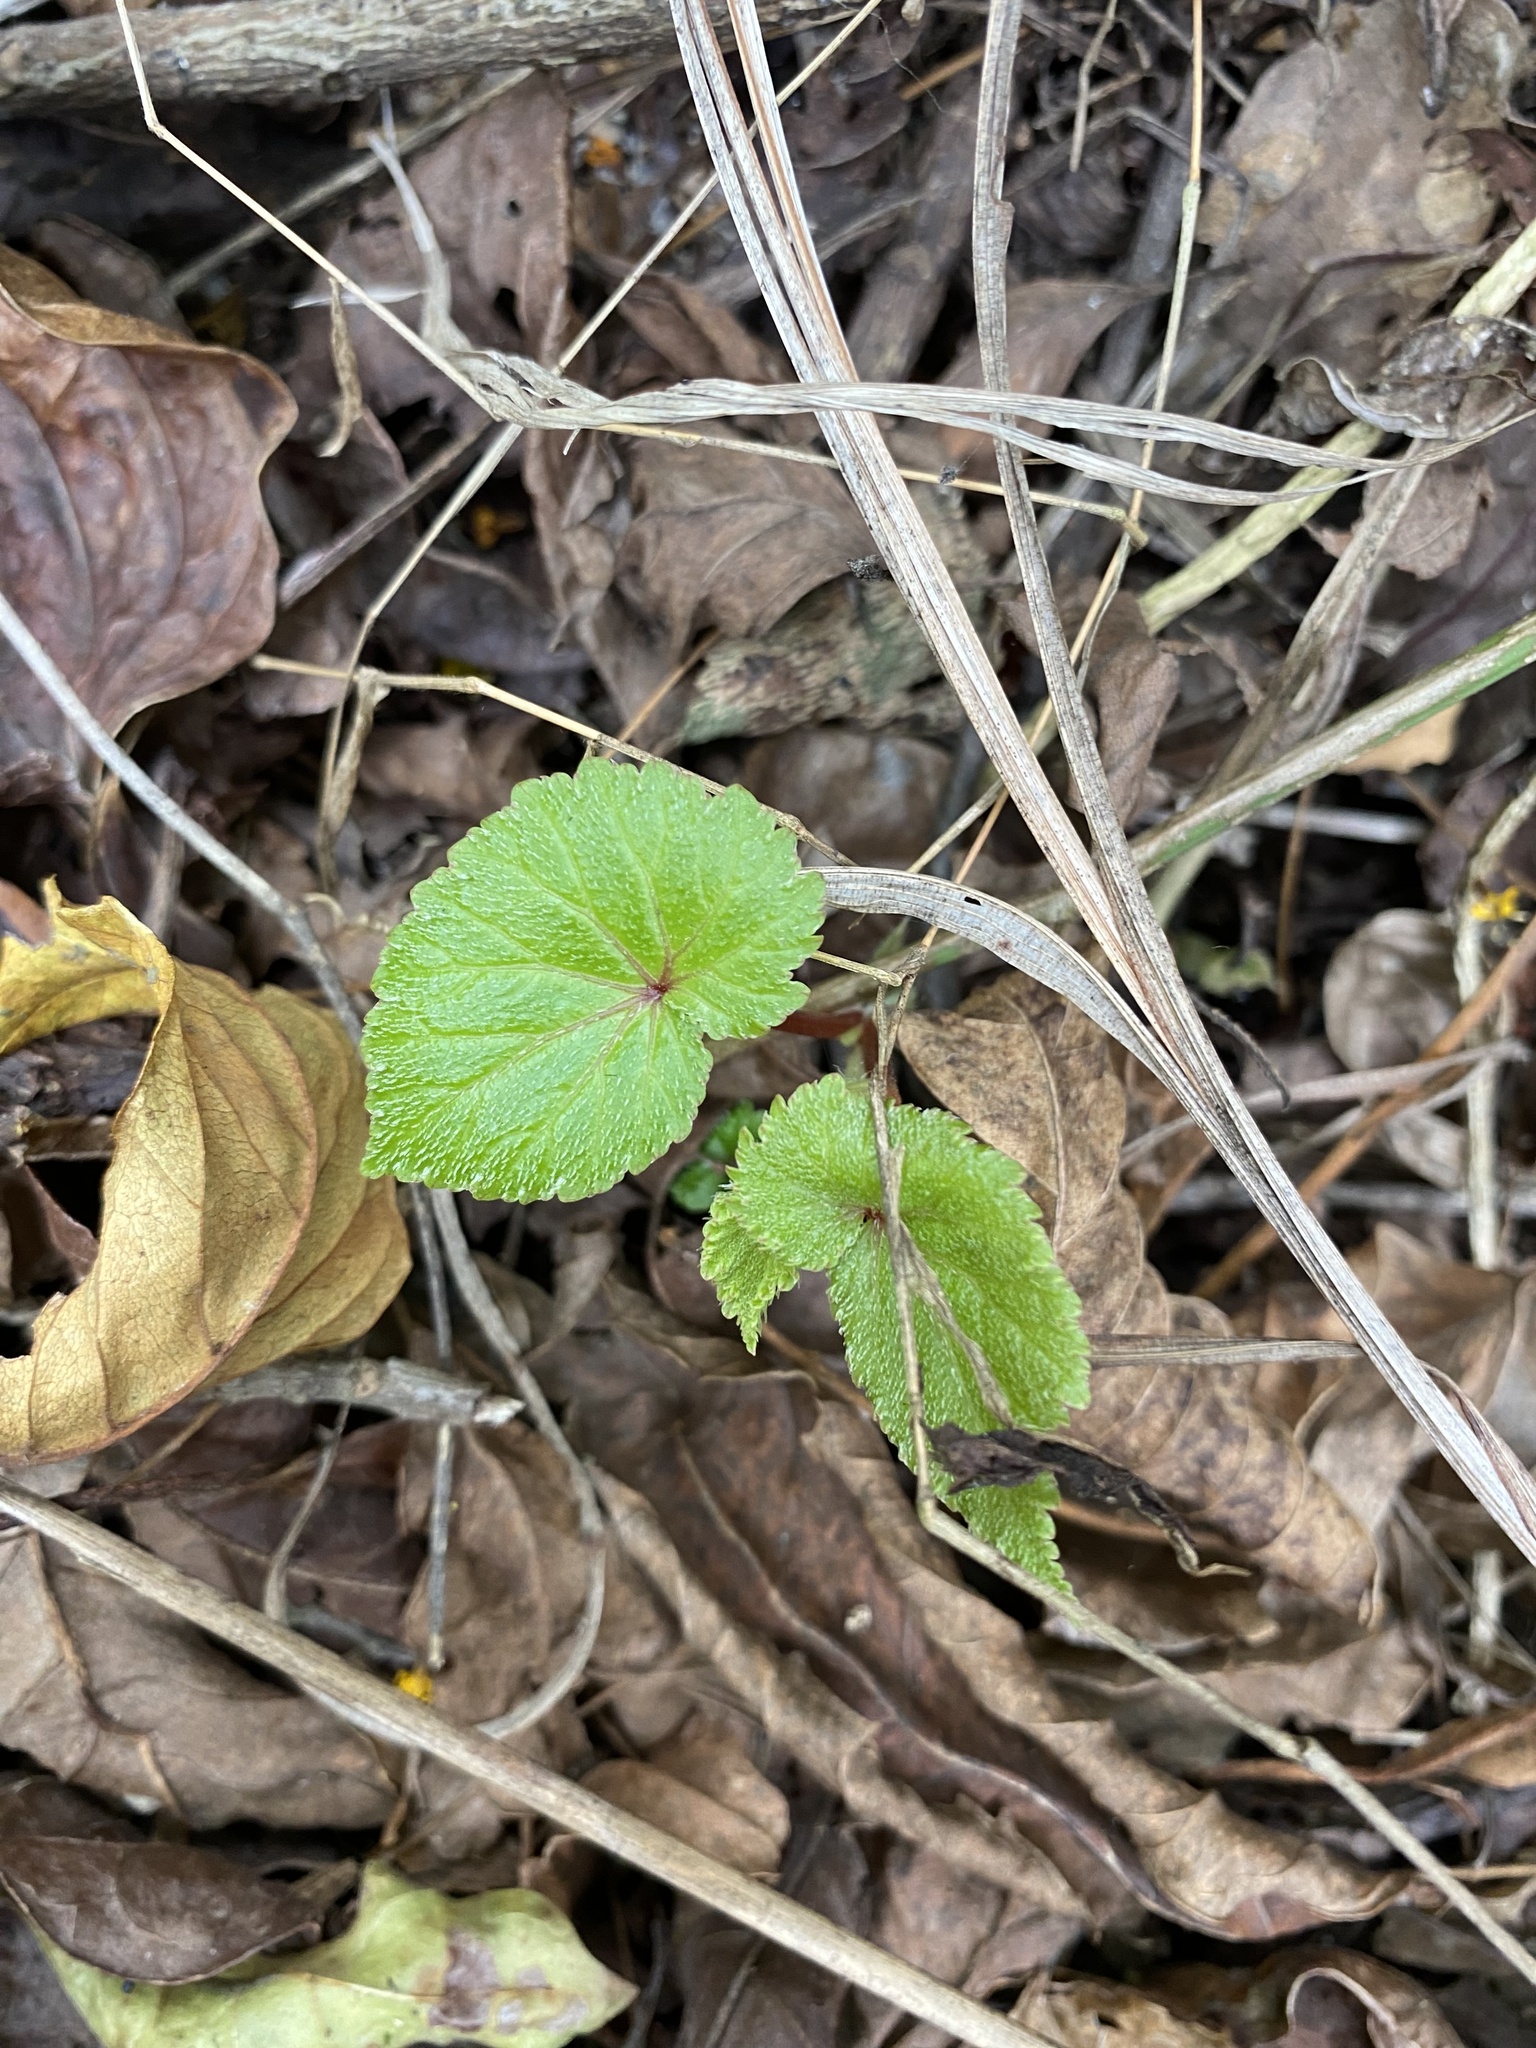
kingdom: Plantae
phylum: Tracheophyta
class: Magnoliopsida
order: Cucurbitales
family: Begoniaceae
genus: Begonia
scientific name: Begonia sutherlandii
